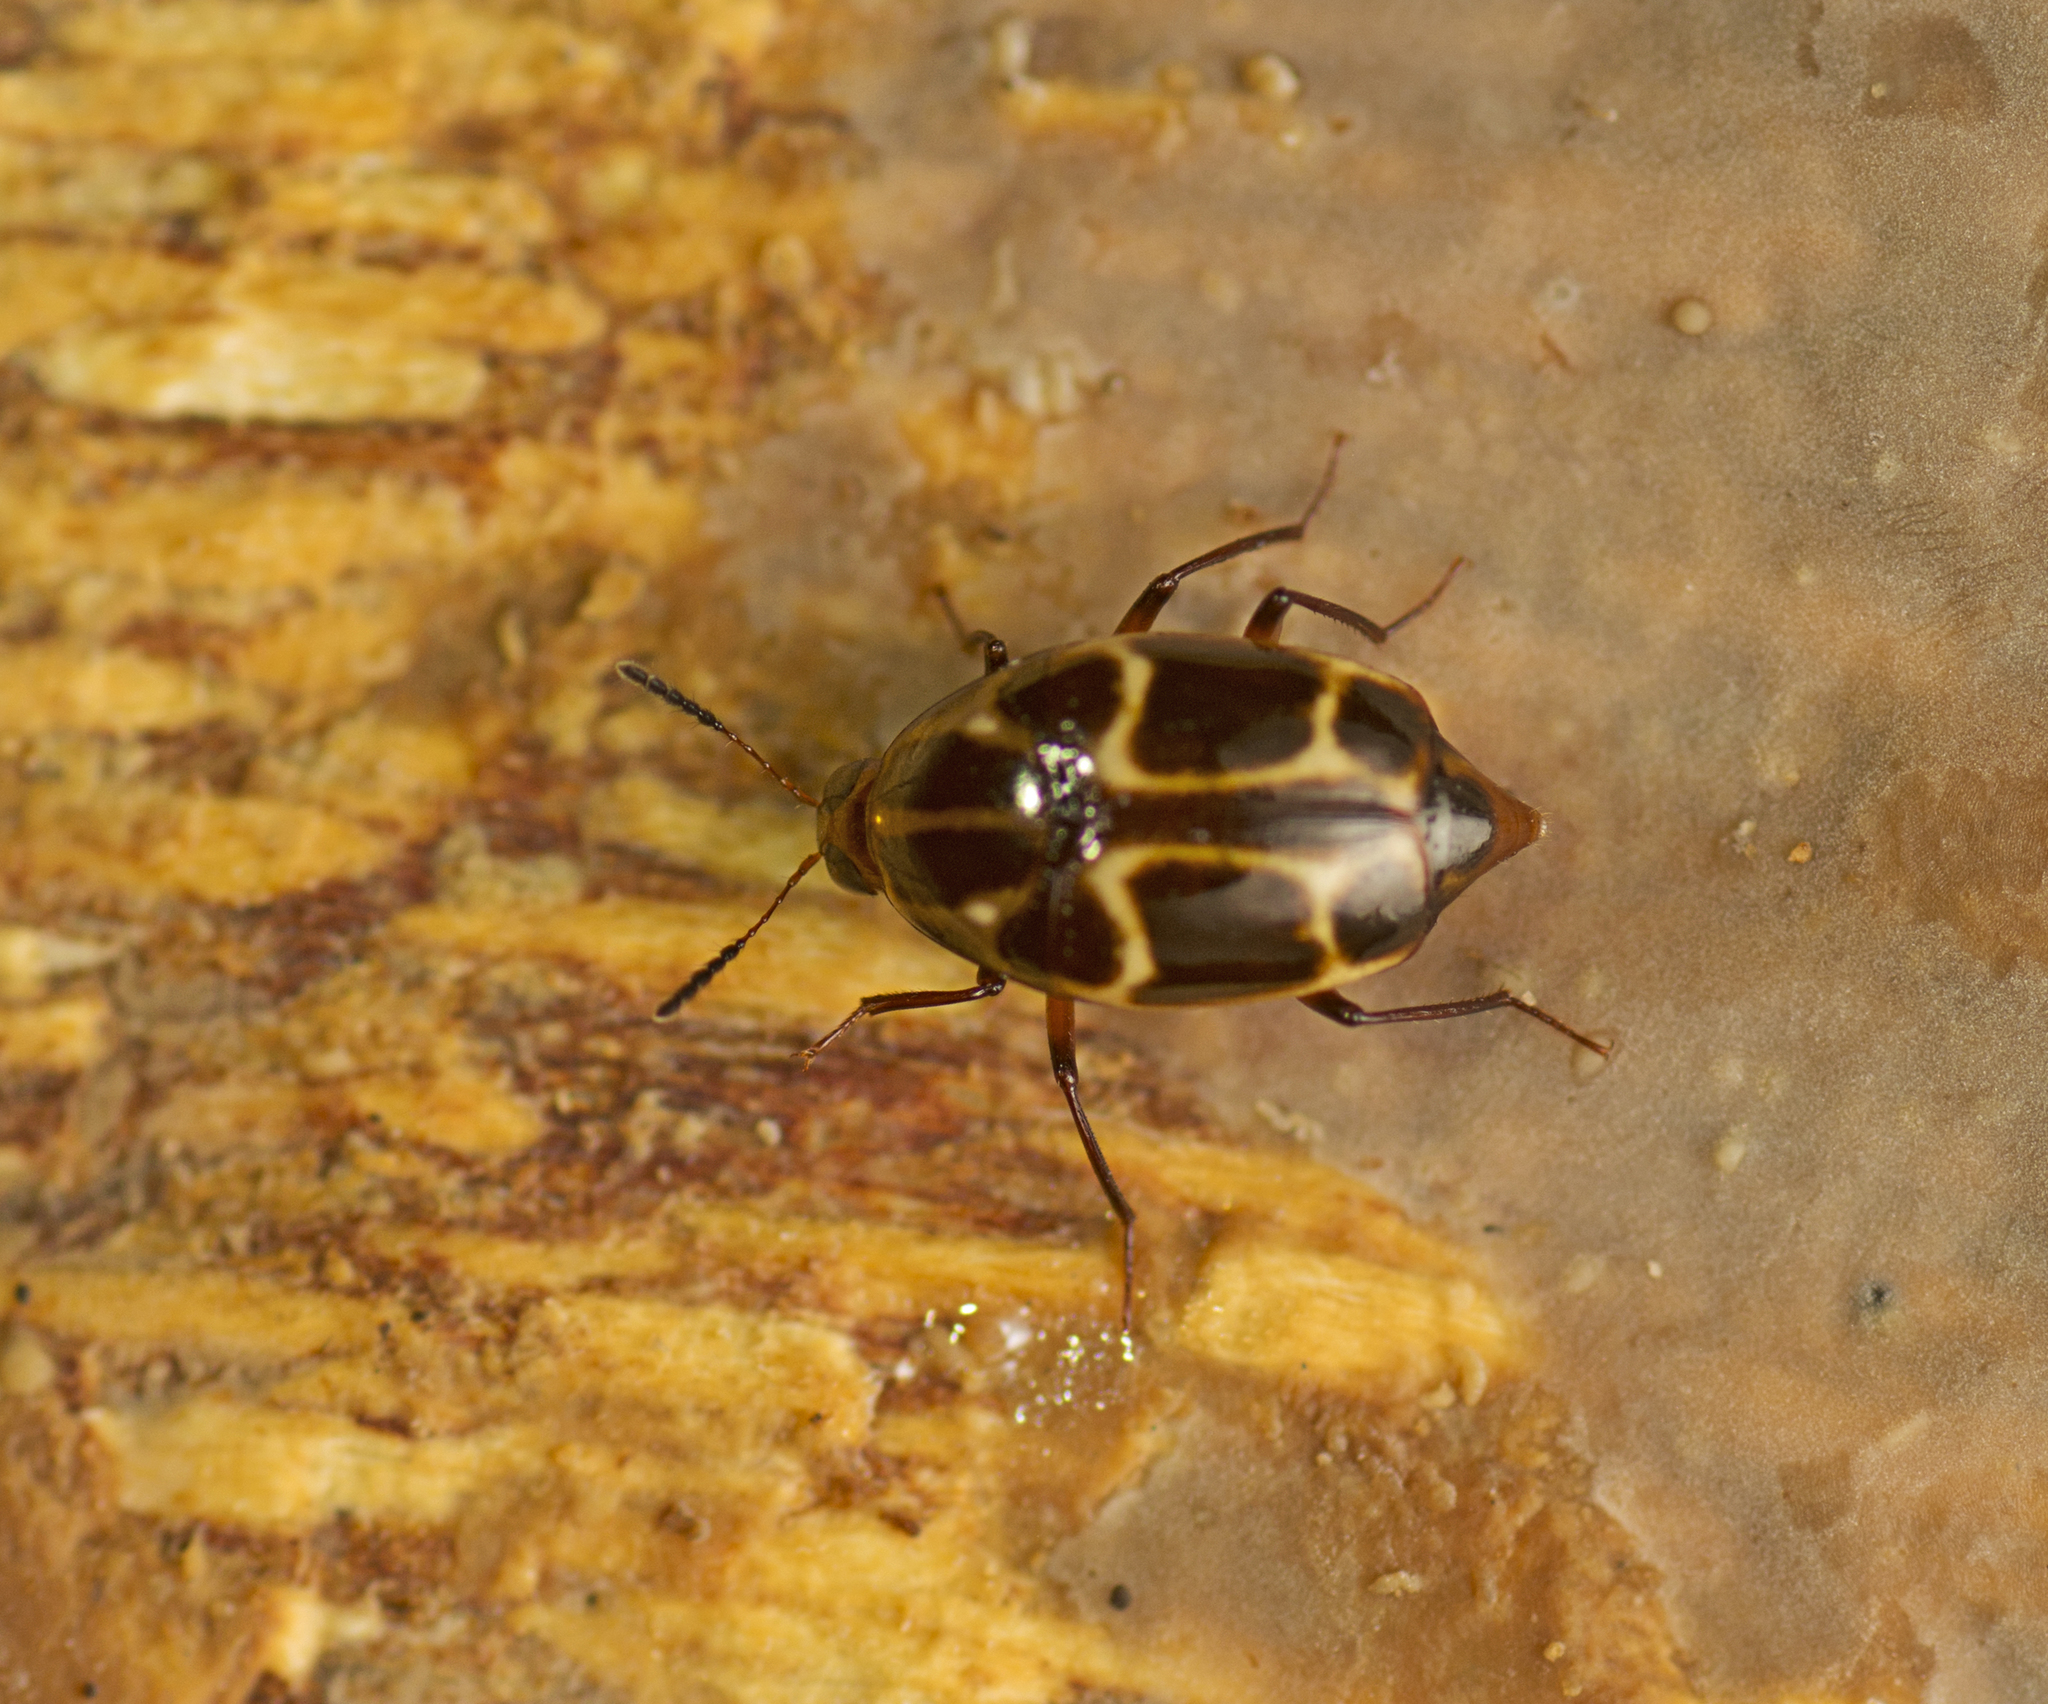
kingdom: Animalia
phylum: Arthropoda
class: Insecta
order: Coleoptera
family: Staphylinidae
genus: Scaphidium
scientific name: Scaphidium exornatum
